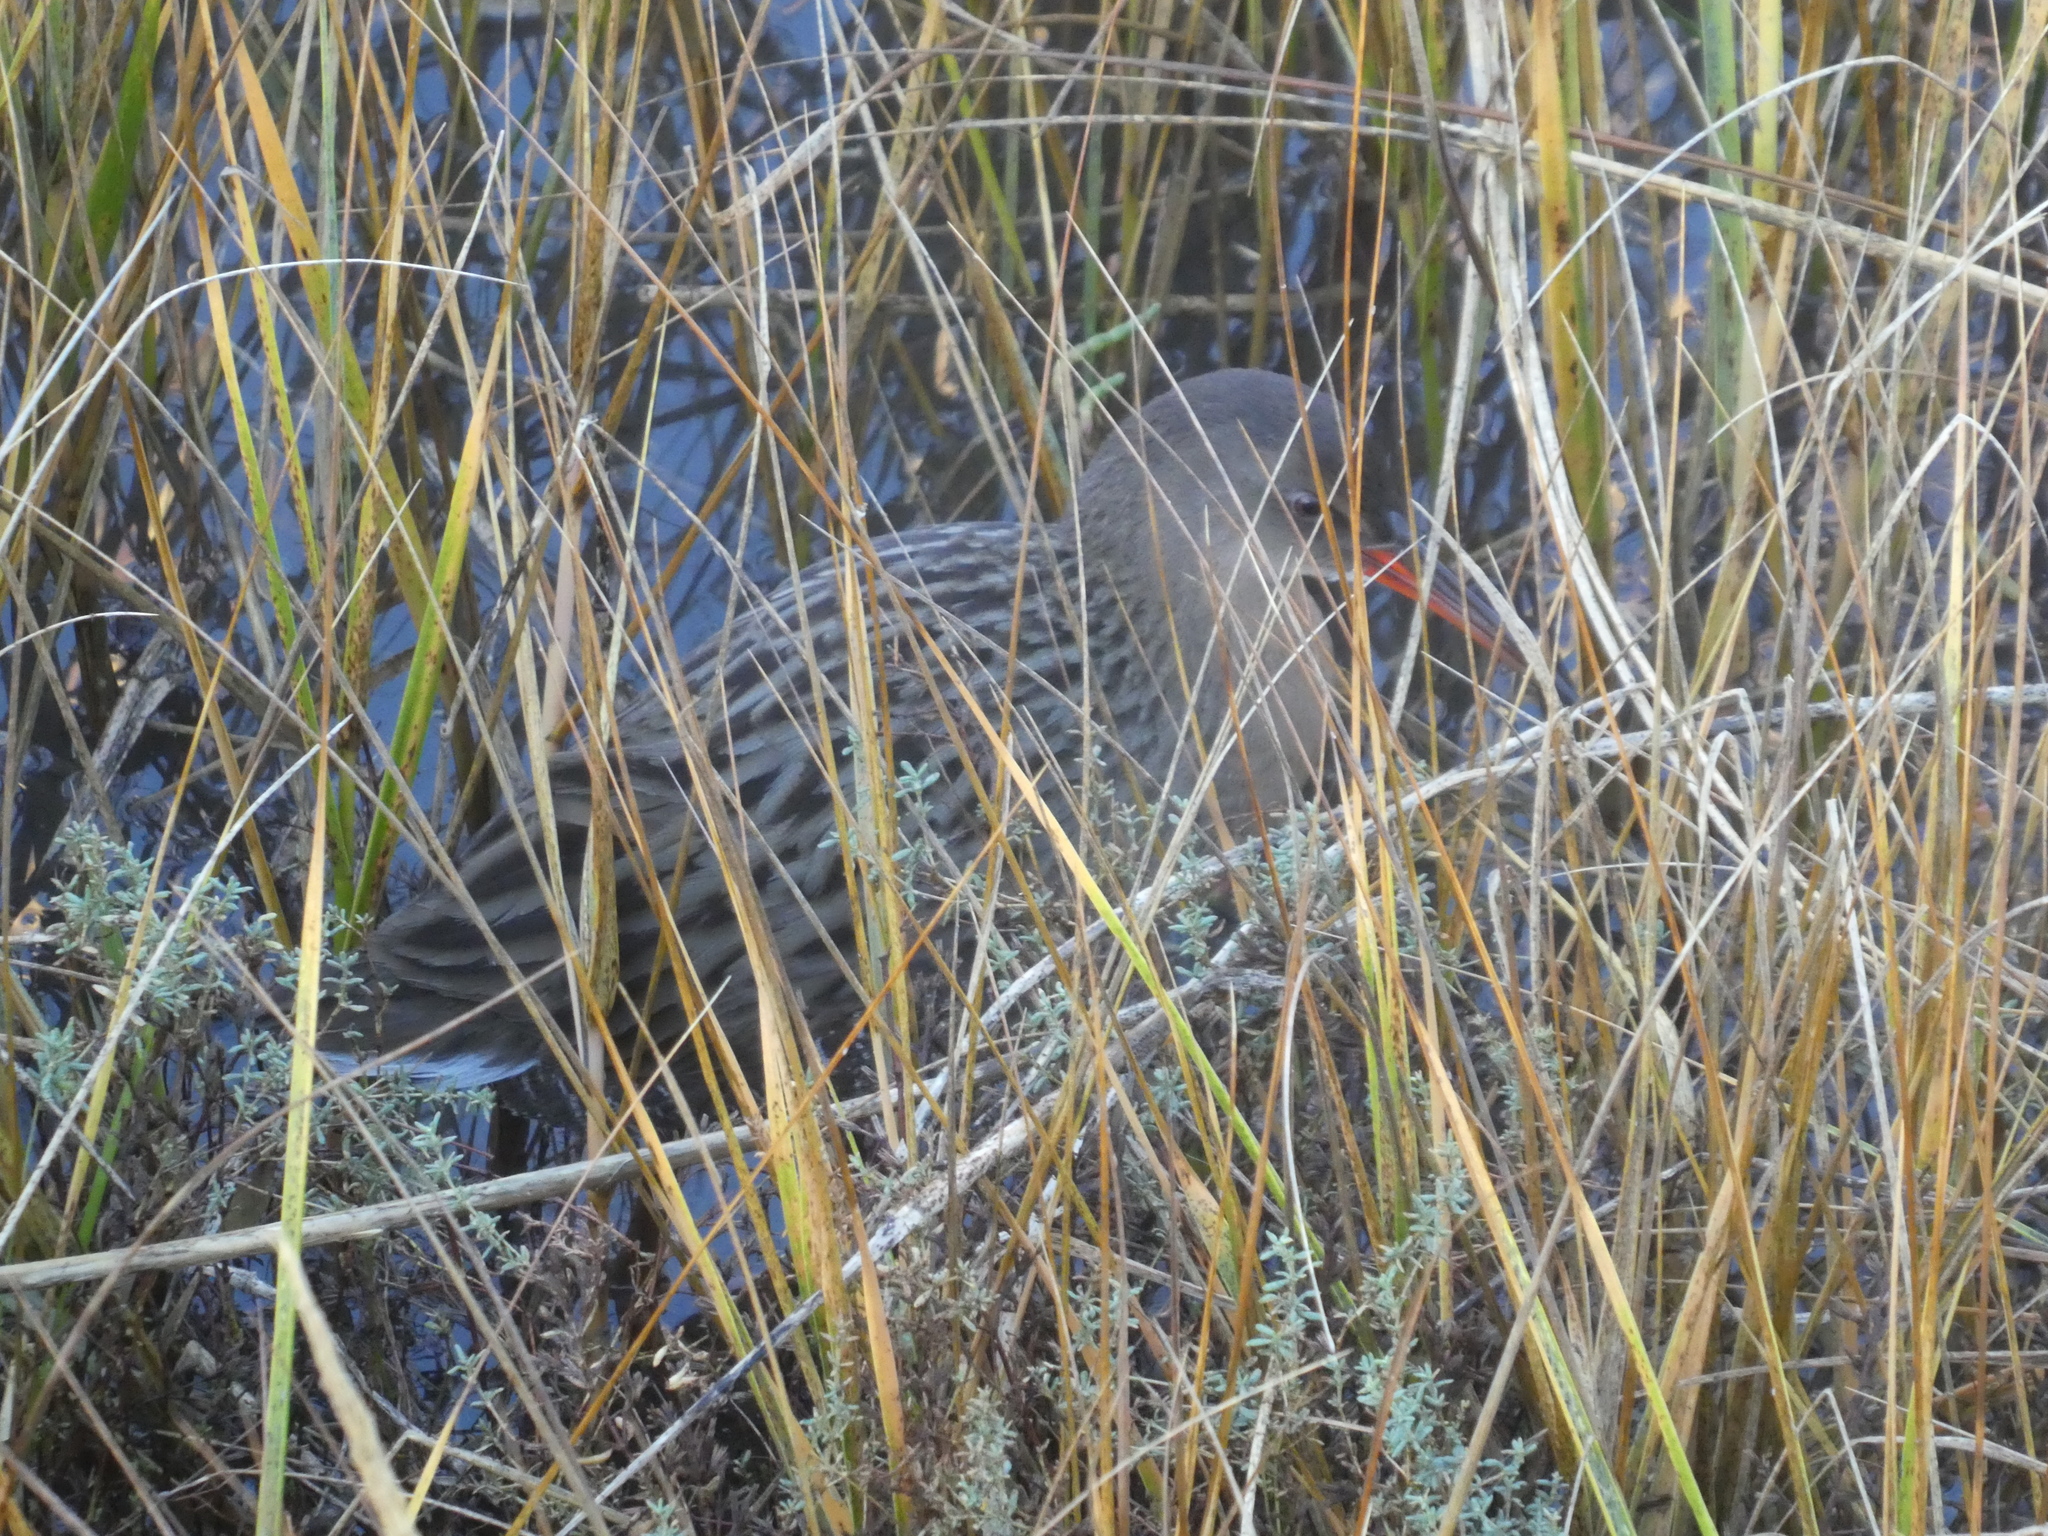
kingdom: Animalia
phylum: Chordata
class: Aves
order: Gruiformes
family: Rallidae
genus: Rallus
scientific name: Rallus obsoletus
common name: Ridgway's rail
